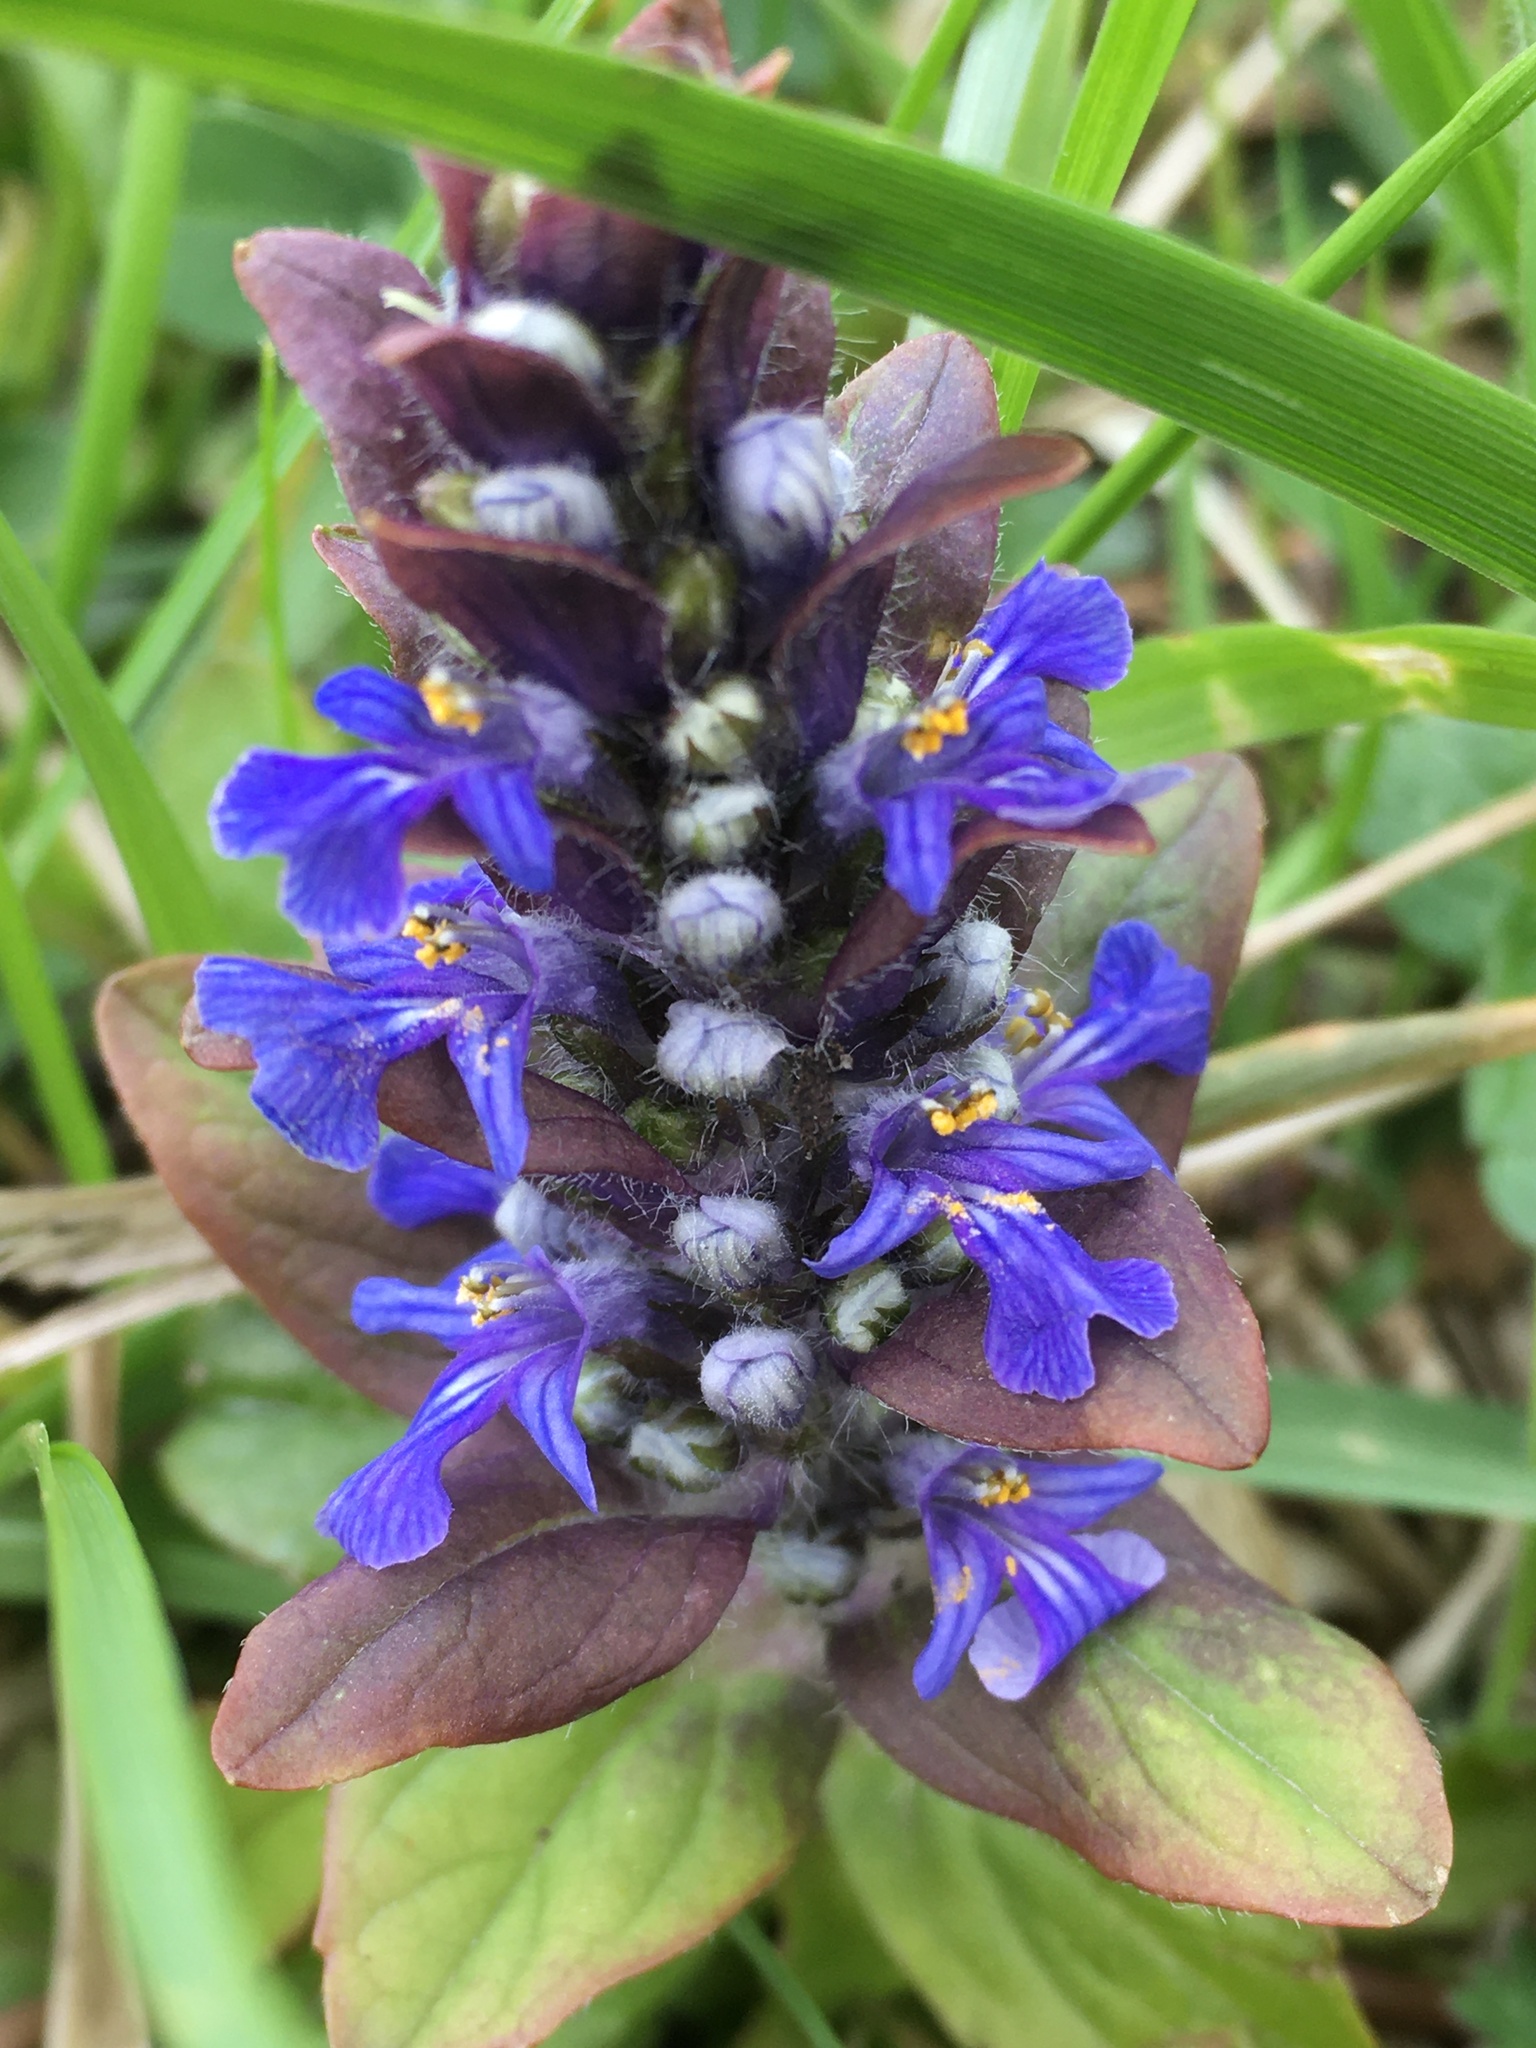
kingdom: Plantae
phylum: Tracheophyta
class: Magnoliopsida
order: Lamiales
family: Lamiaceae
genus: Ajuga
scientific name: Ajuga reptans
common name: Bugle
